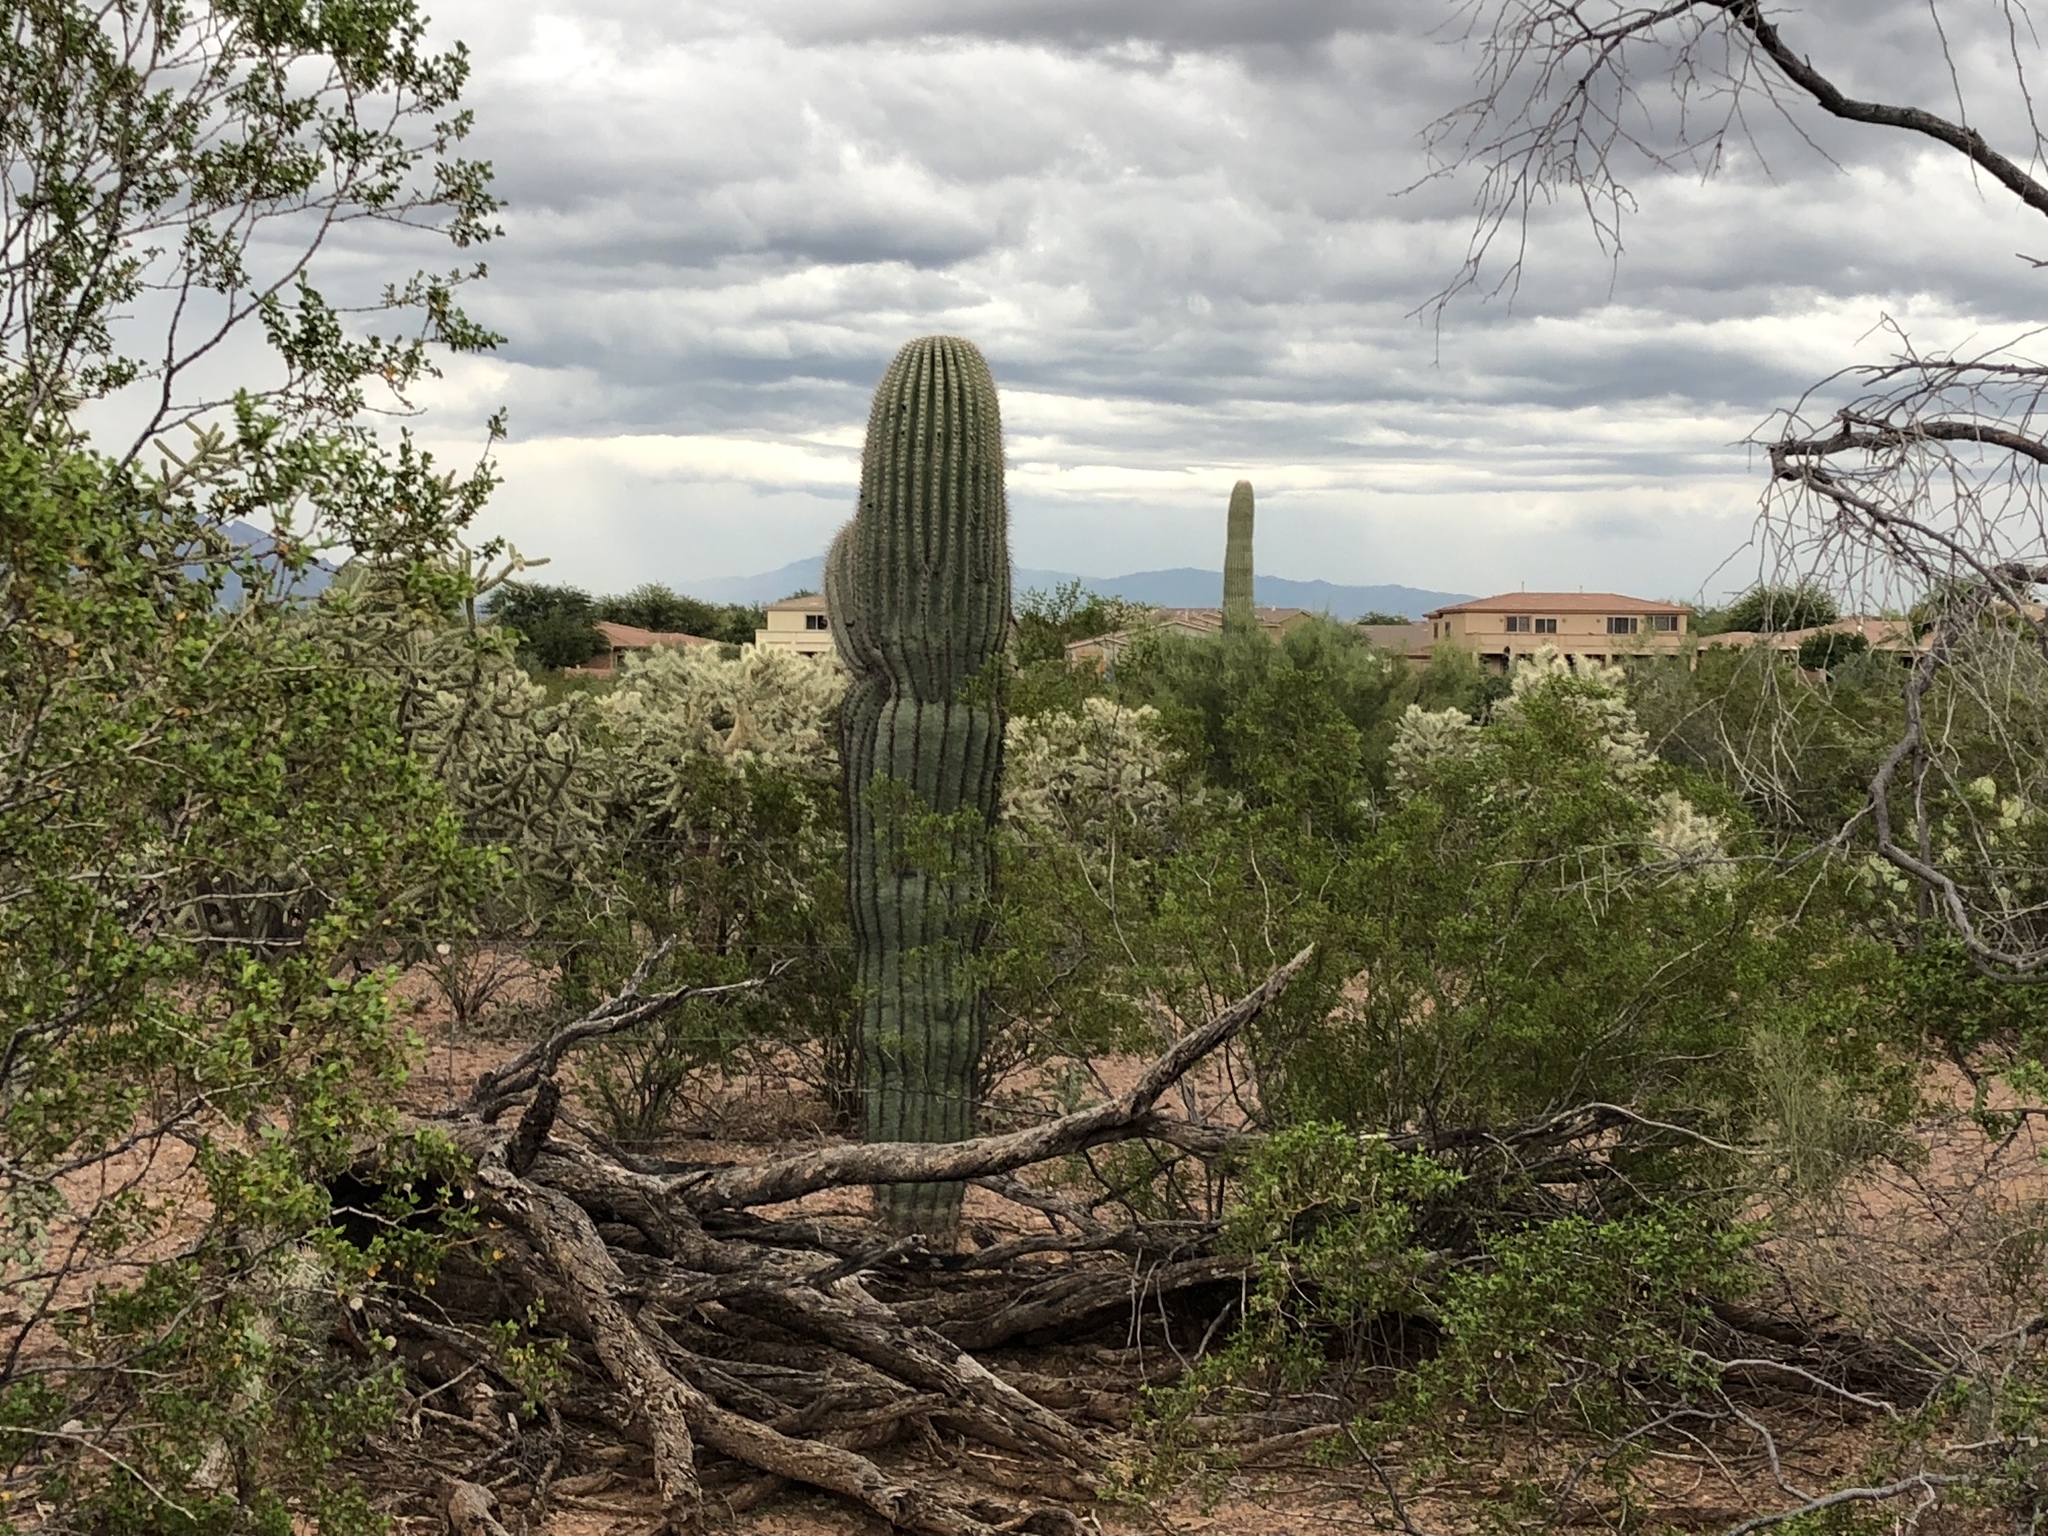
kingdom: Plantae
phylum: Tracheophyta
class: Magnoliopsida
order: Caryophyllales
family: Cactaceae
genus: Carnegiea
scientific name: Carnegiea gigantea
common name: Saguaro
